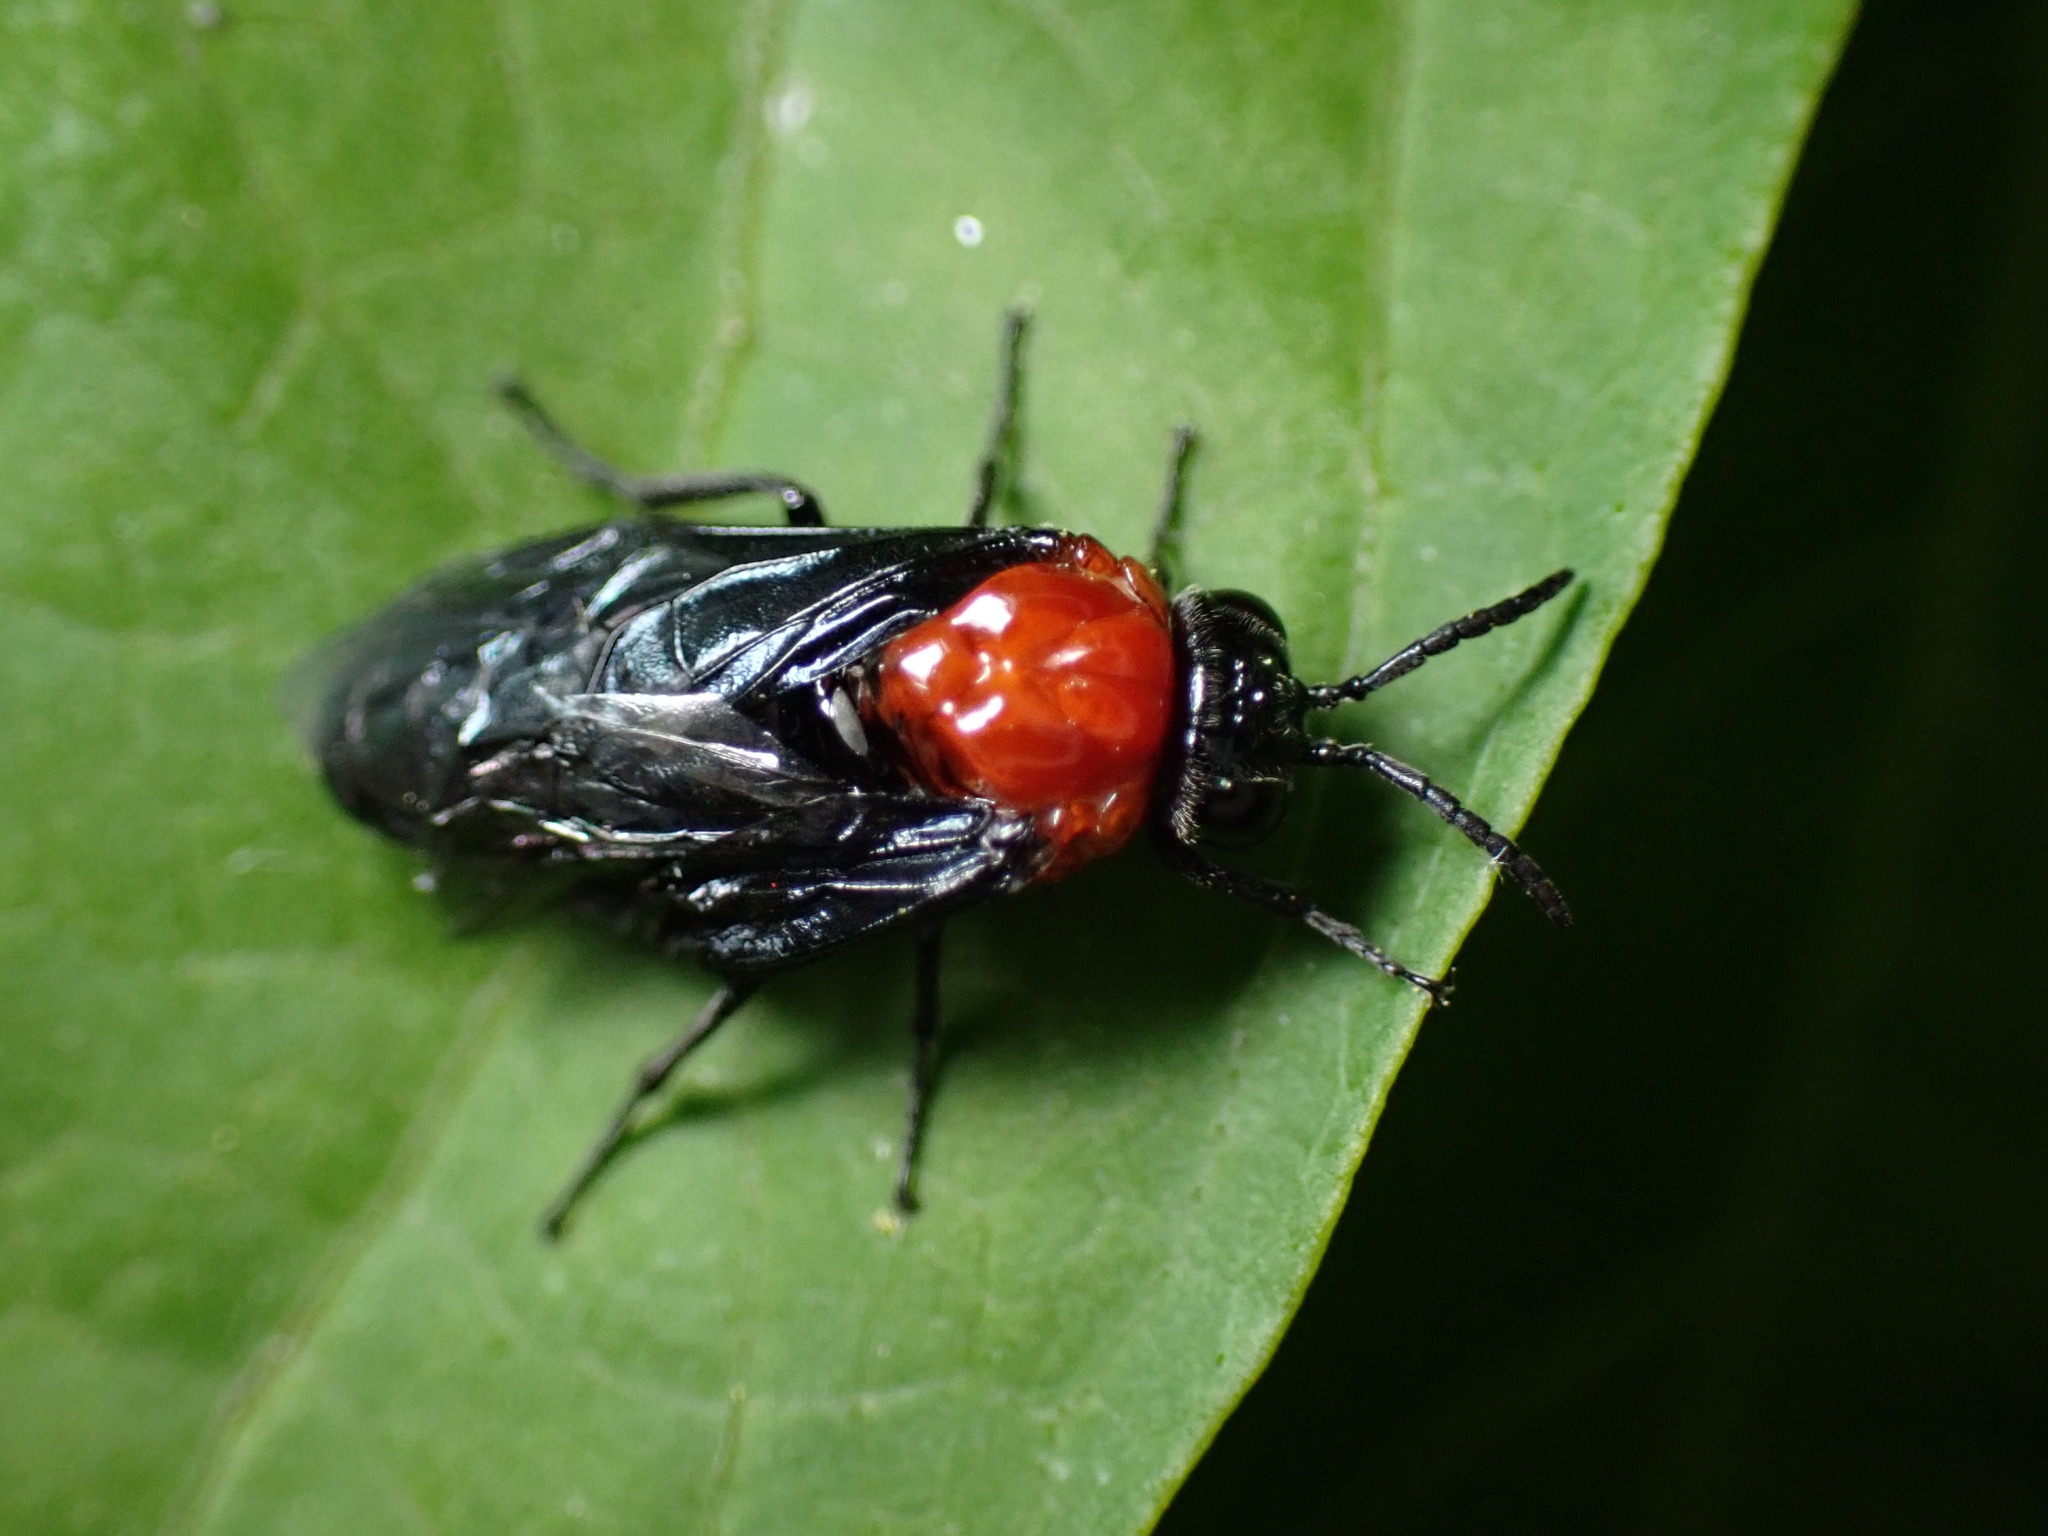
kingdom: Animalia
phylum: Arthropoda
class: Insecta
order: Hymenoptera
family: Tenthredinidae
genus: Tethida
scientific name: Tethida barda
